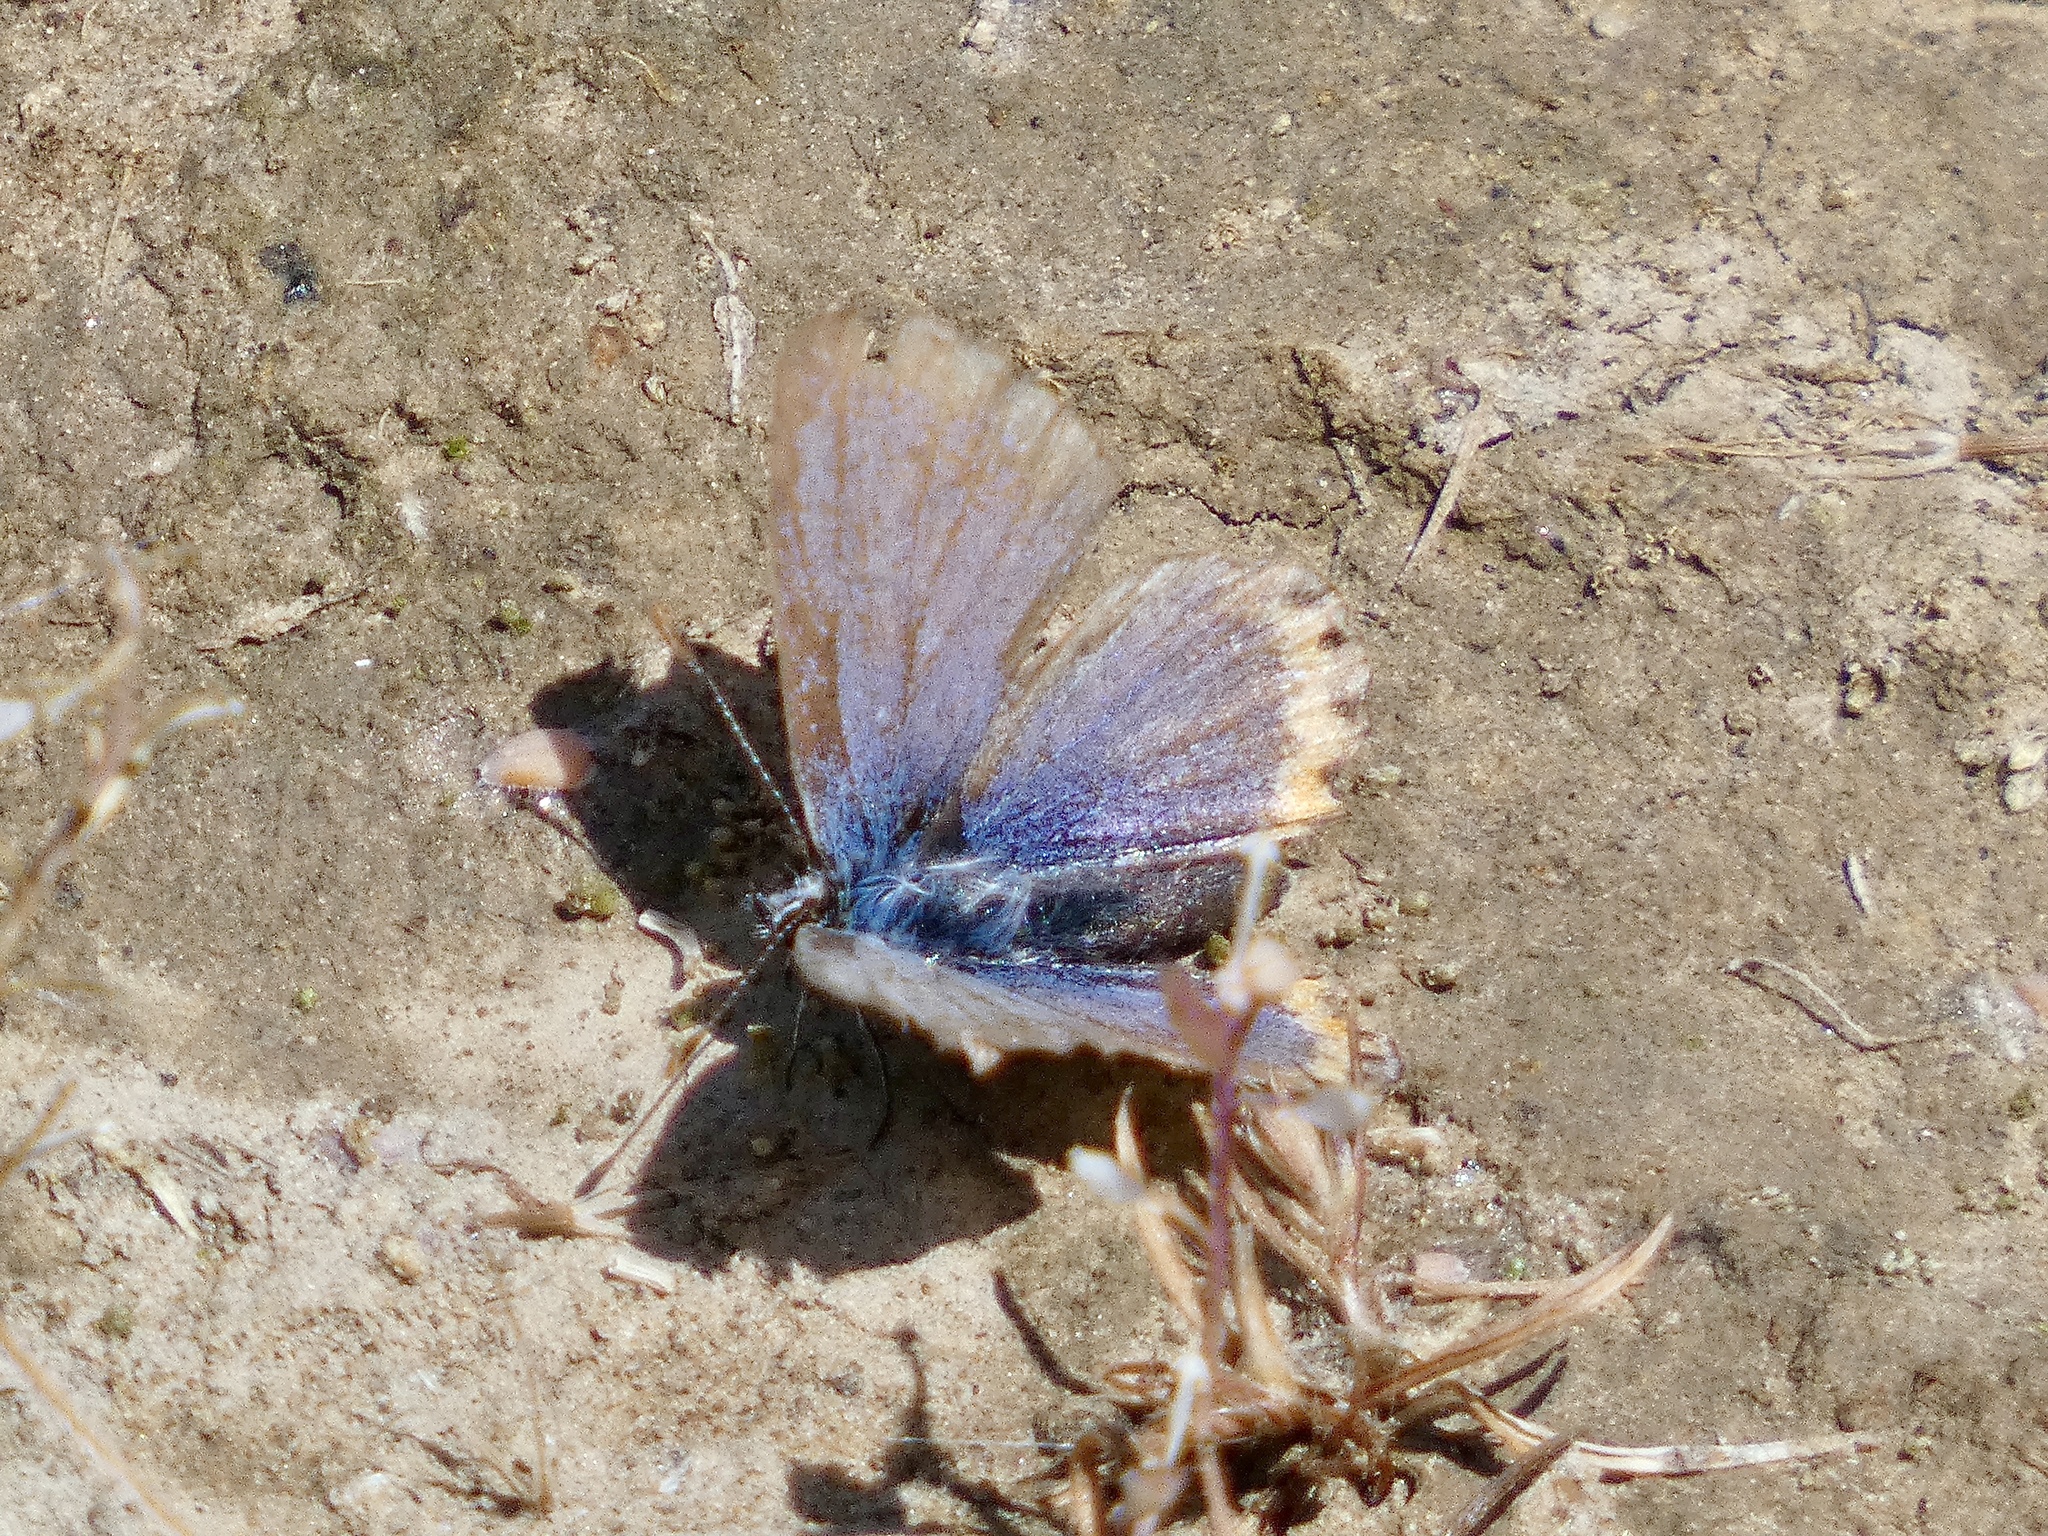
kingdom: Animalia
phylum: Arthropoda
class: Insecta
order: Lepidoptera
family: Lycaenidae
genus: Icaricia
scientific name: Icaricia acmon
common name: Acmon blue
